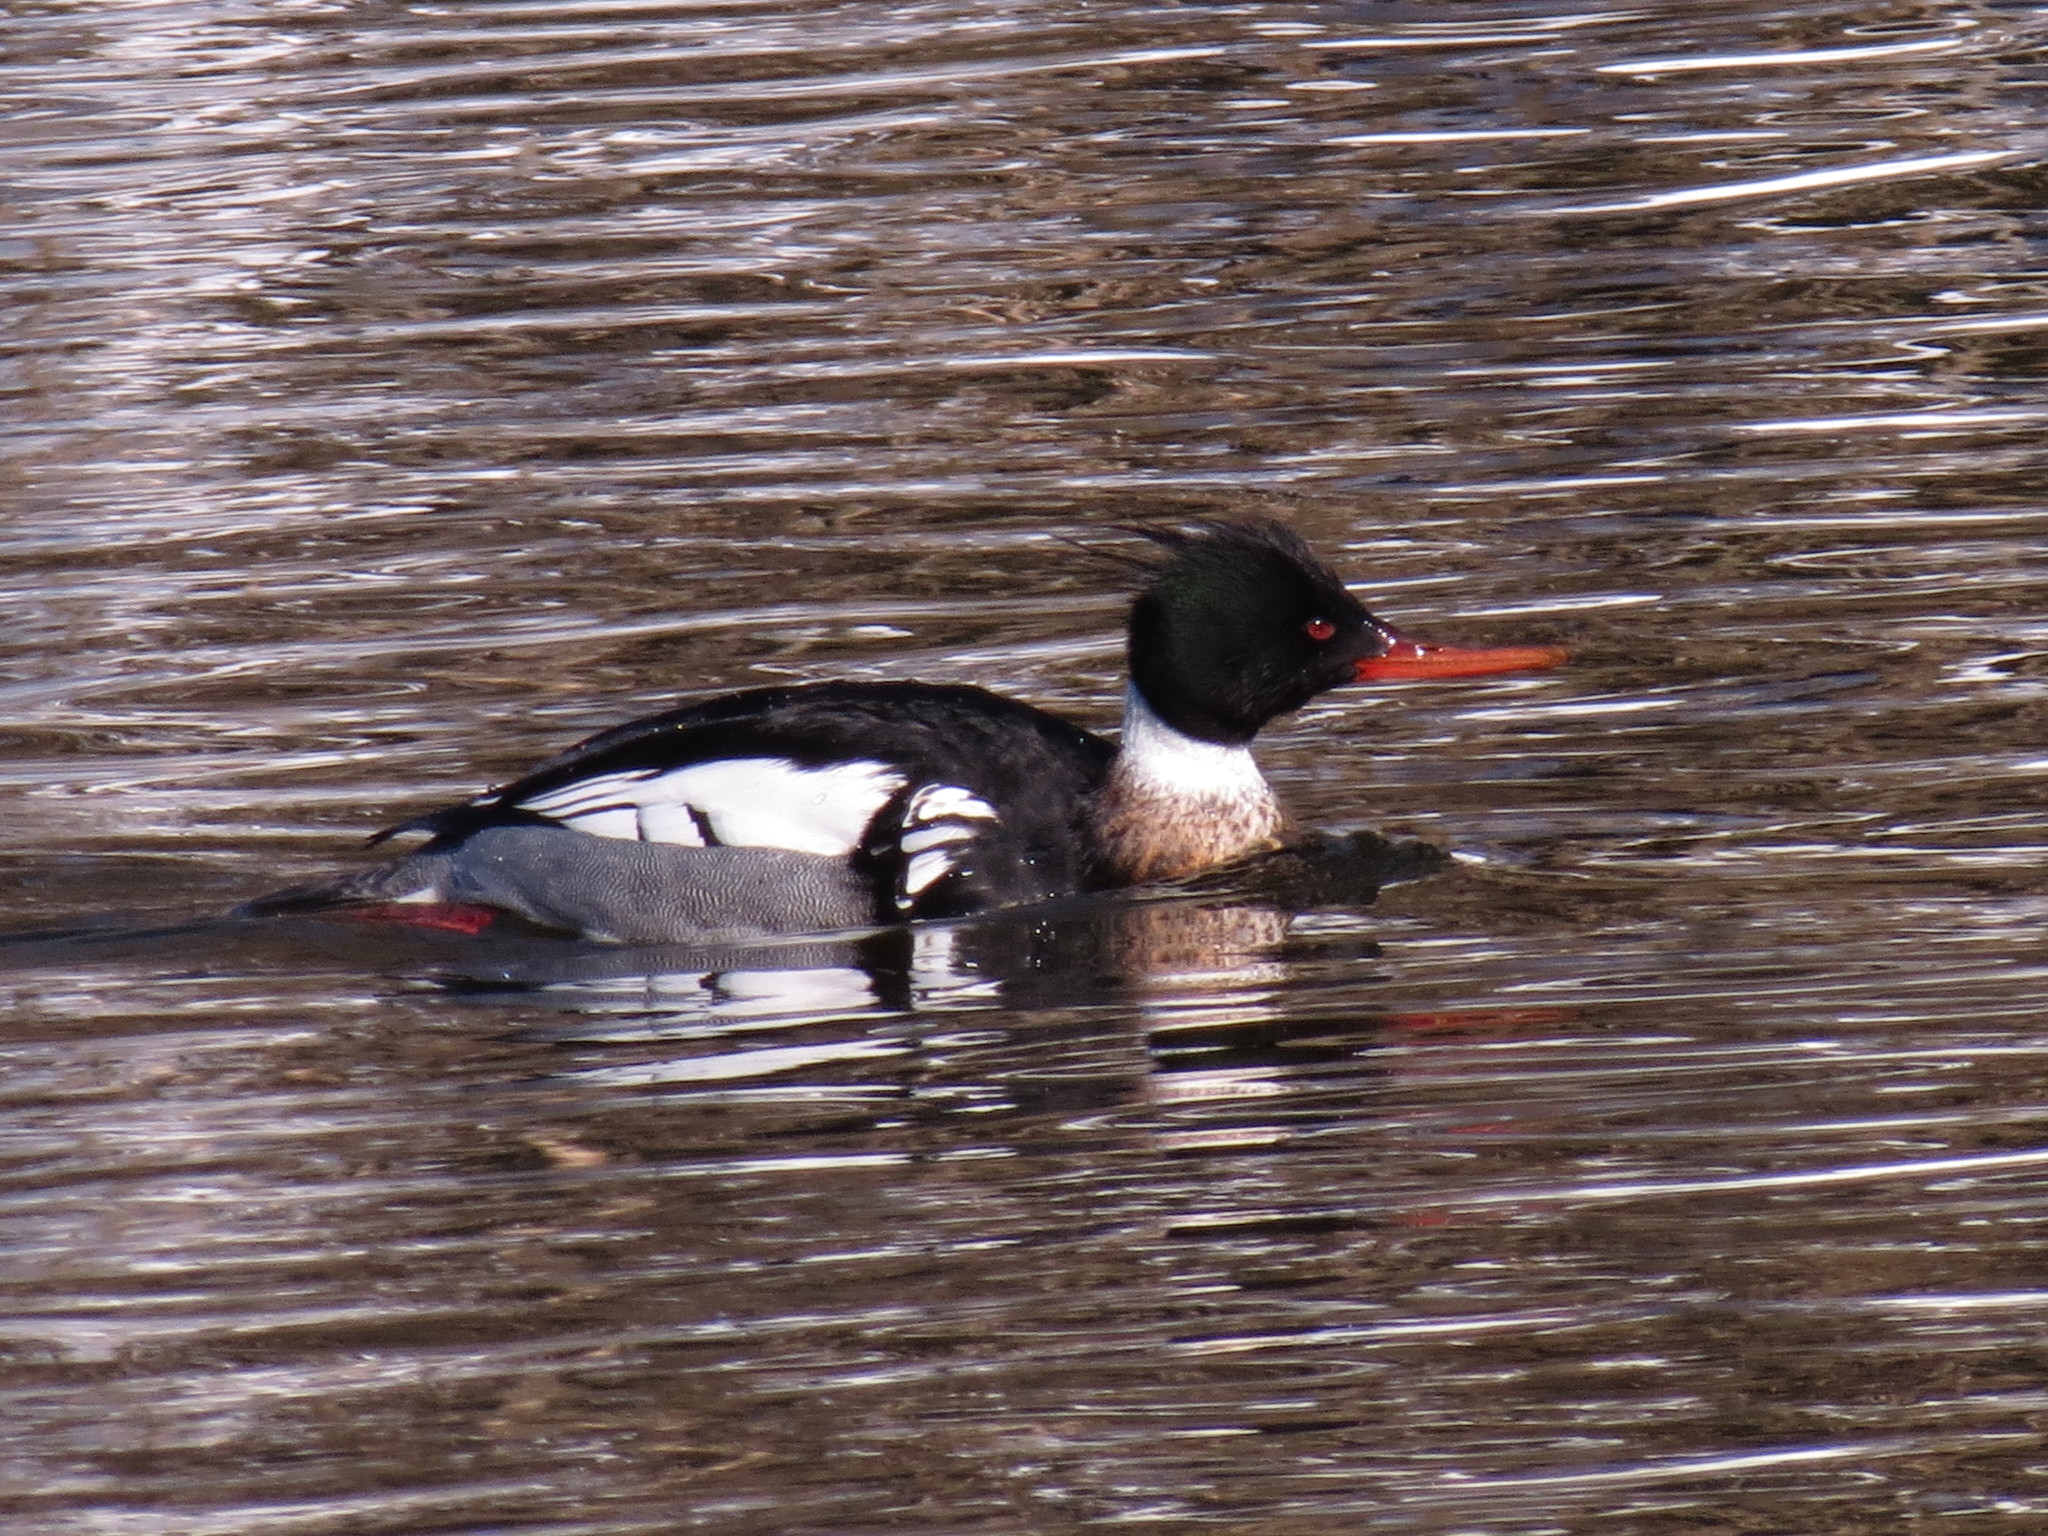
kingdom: Animalia
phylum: Chordata
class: Aves
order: Anseriformes
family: Anatidae
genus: Mergus
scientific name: Mergus serrator
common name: Red-breasted merganser
